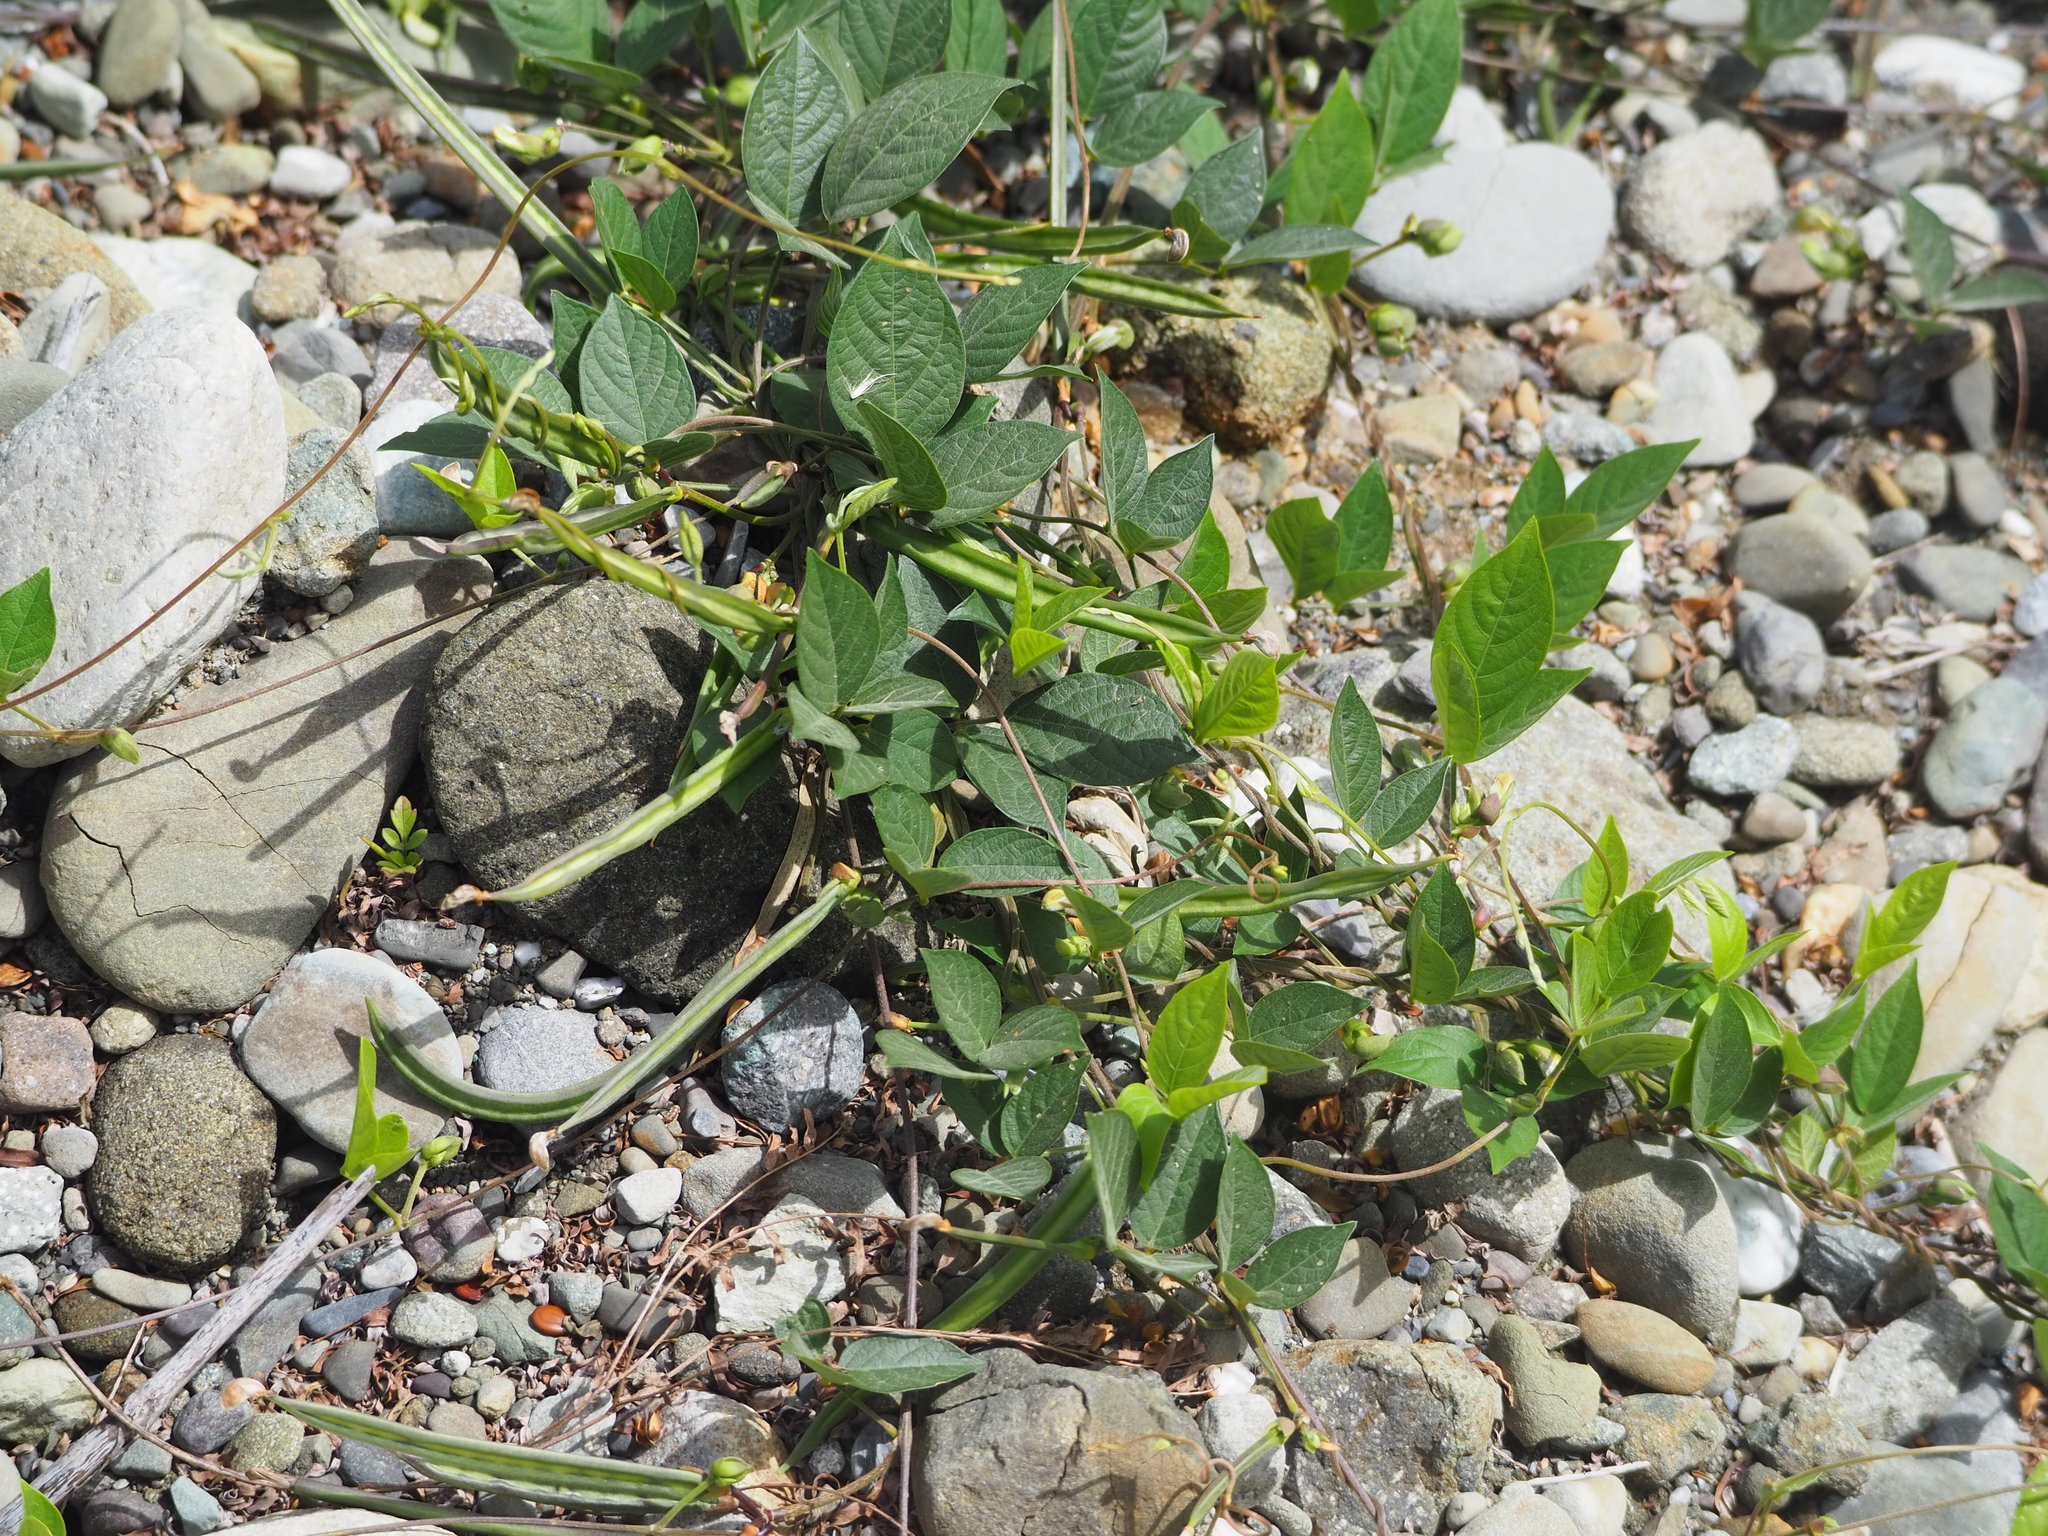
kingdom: Plantae
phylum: Tracheophyta
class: Magnoliopsida
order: Fabales
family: Fabaceae
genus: Centrosema
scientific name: Centrosema pubescens
